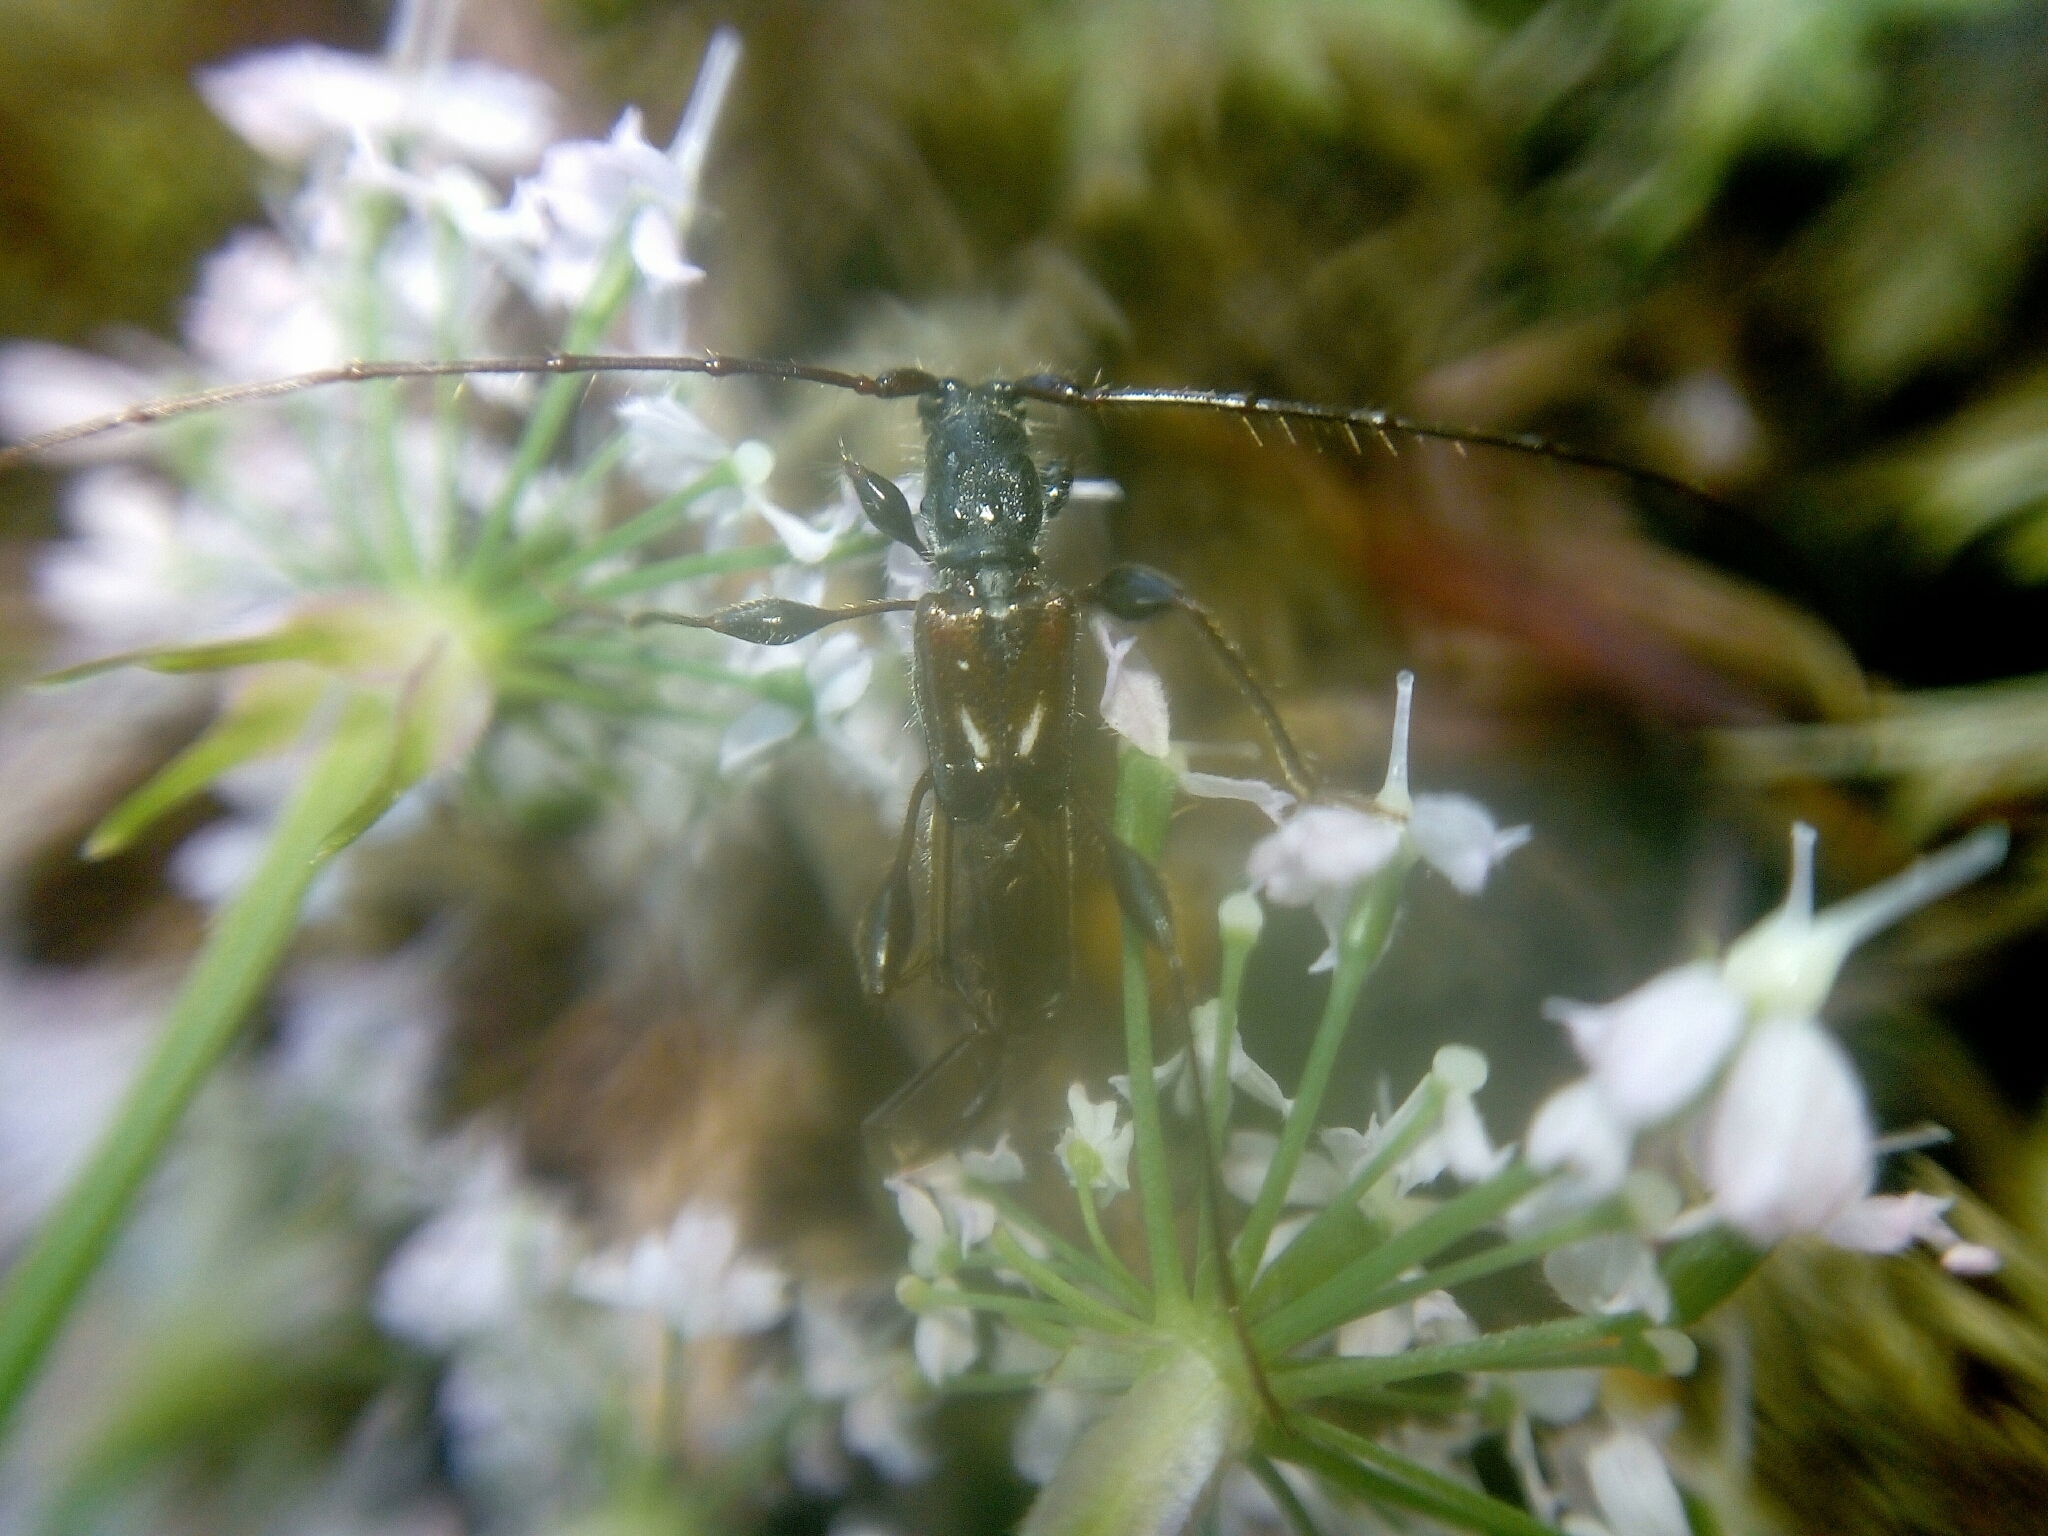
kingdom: Animalia
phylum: Arthropoda
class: Insecta
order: Coleoptera
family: Cerambycidae
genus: Molorchus
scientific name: Molorchus minor
